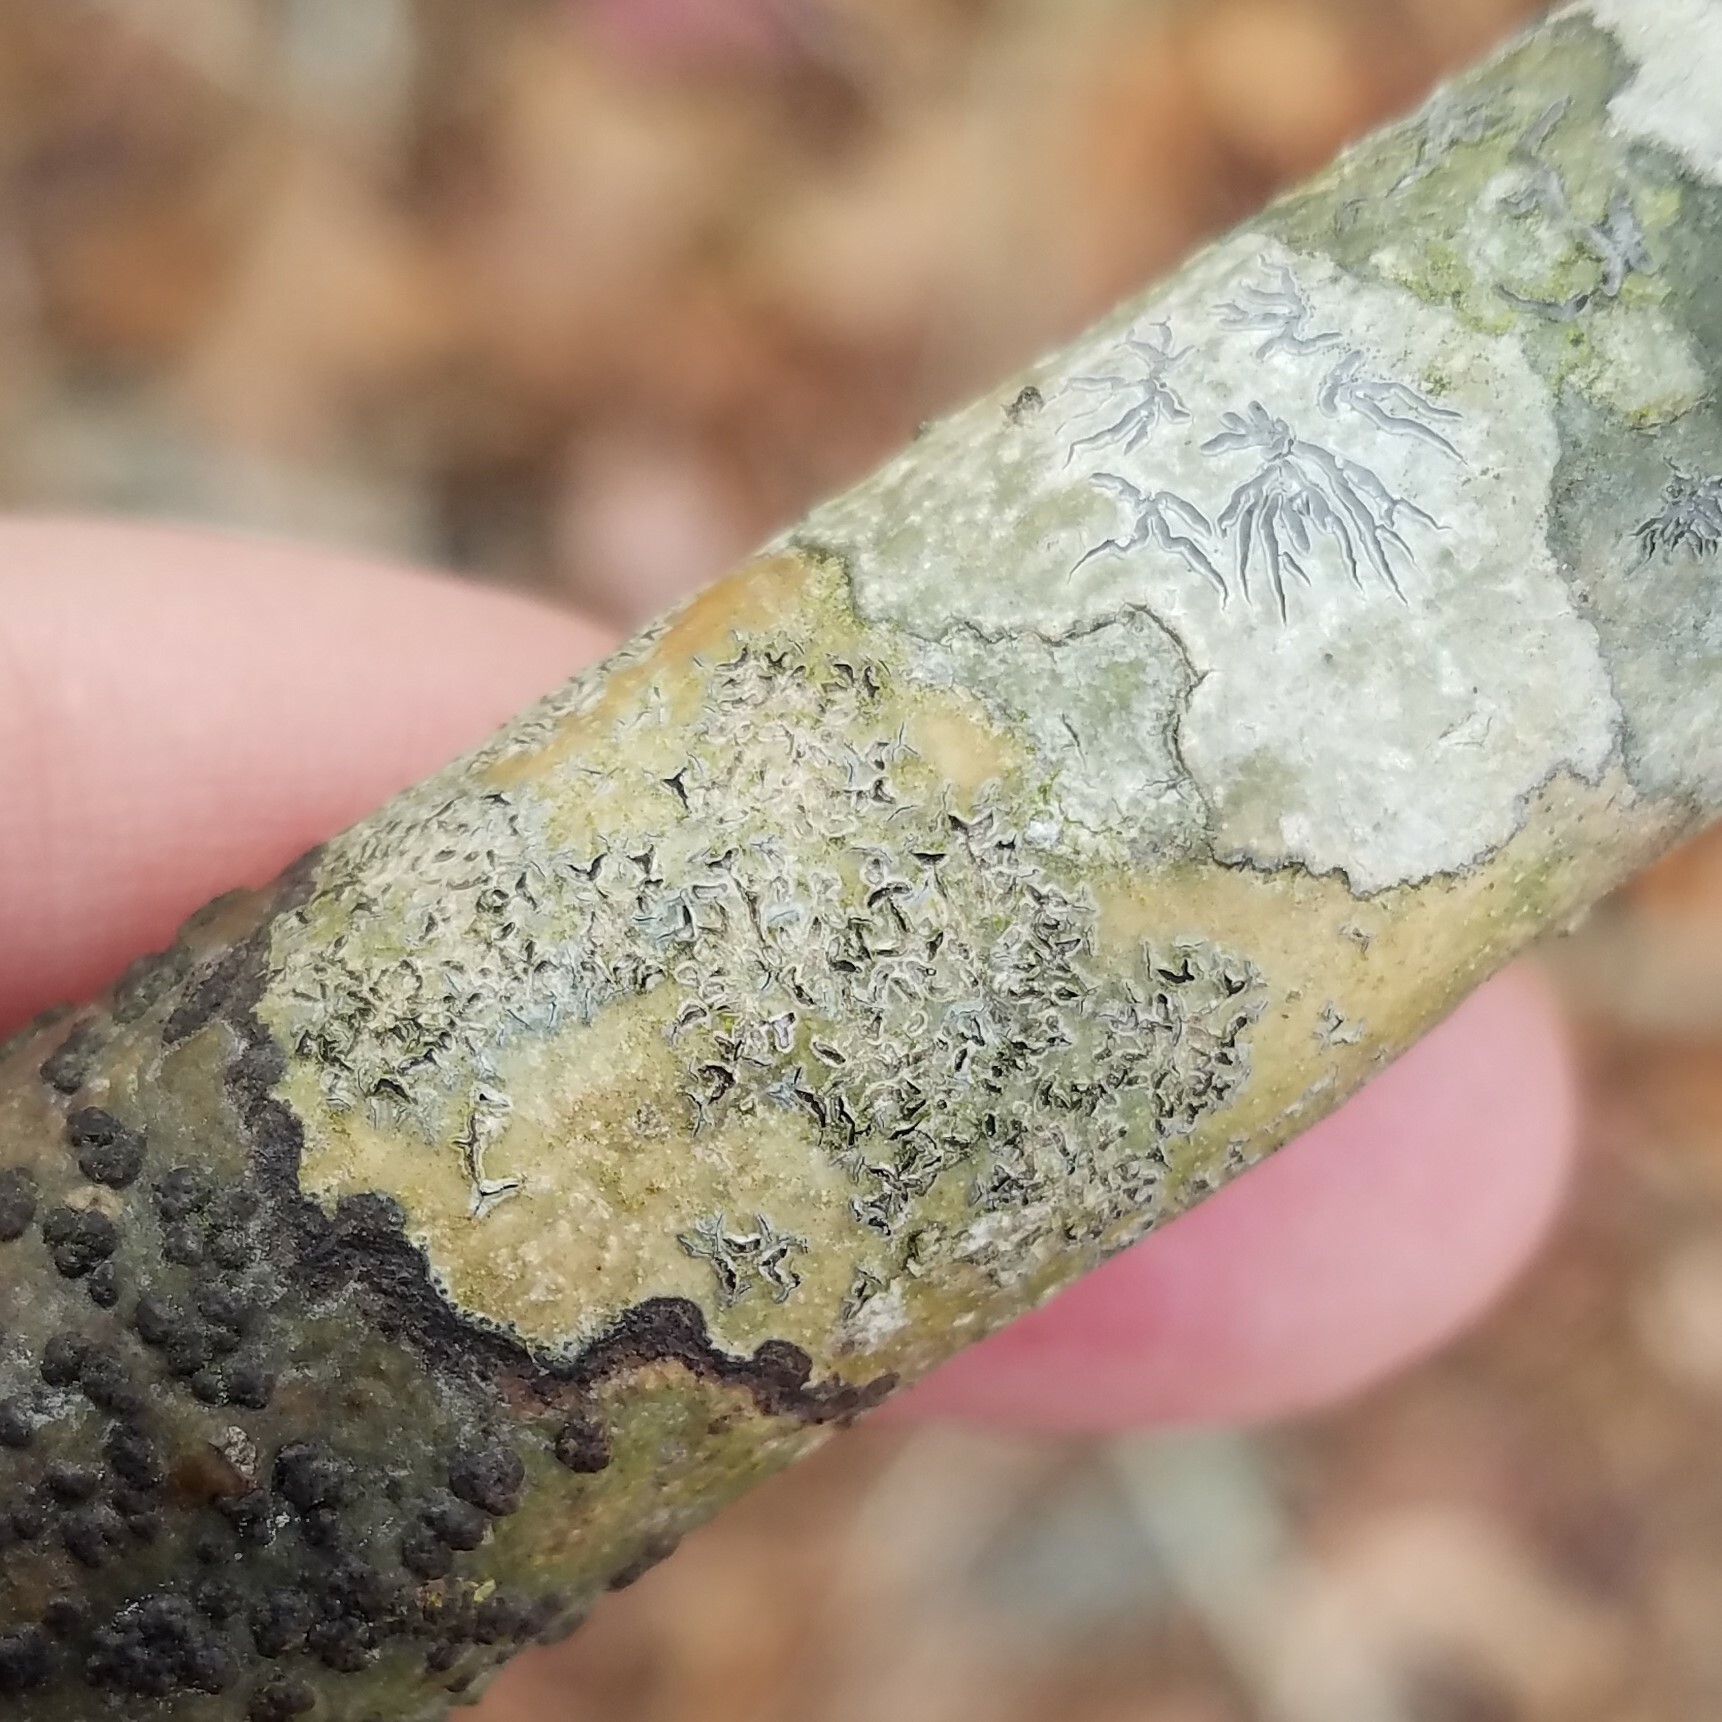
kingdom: Fungi
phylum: Ascomycota
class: Lecanoromycetes
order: Ostropales
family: Graphidaceae
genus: Phaeographis
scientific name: Phaeographis erumpens
